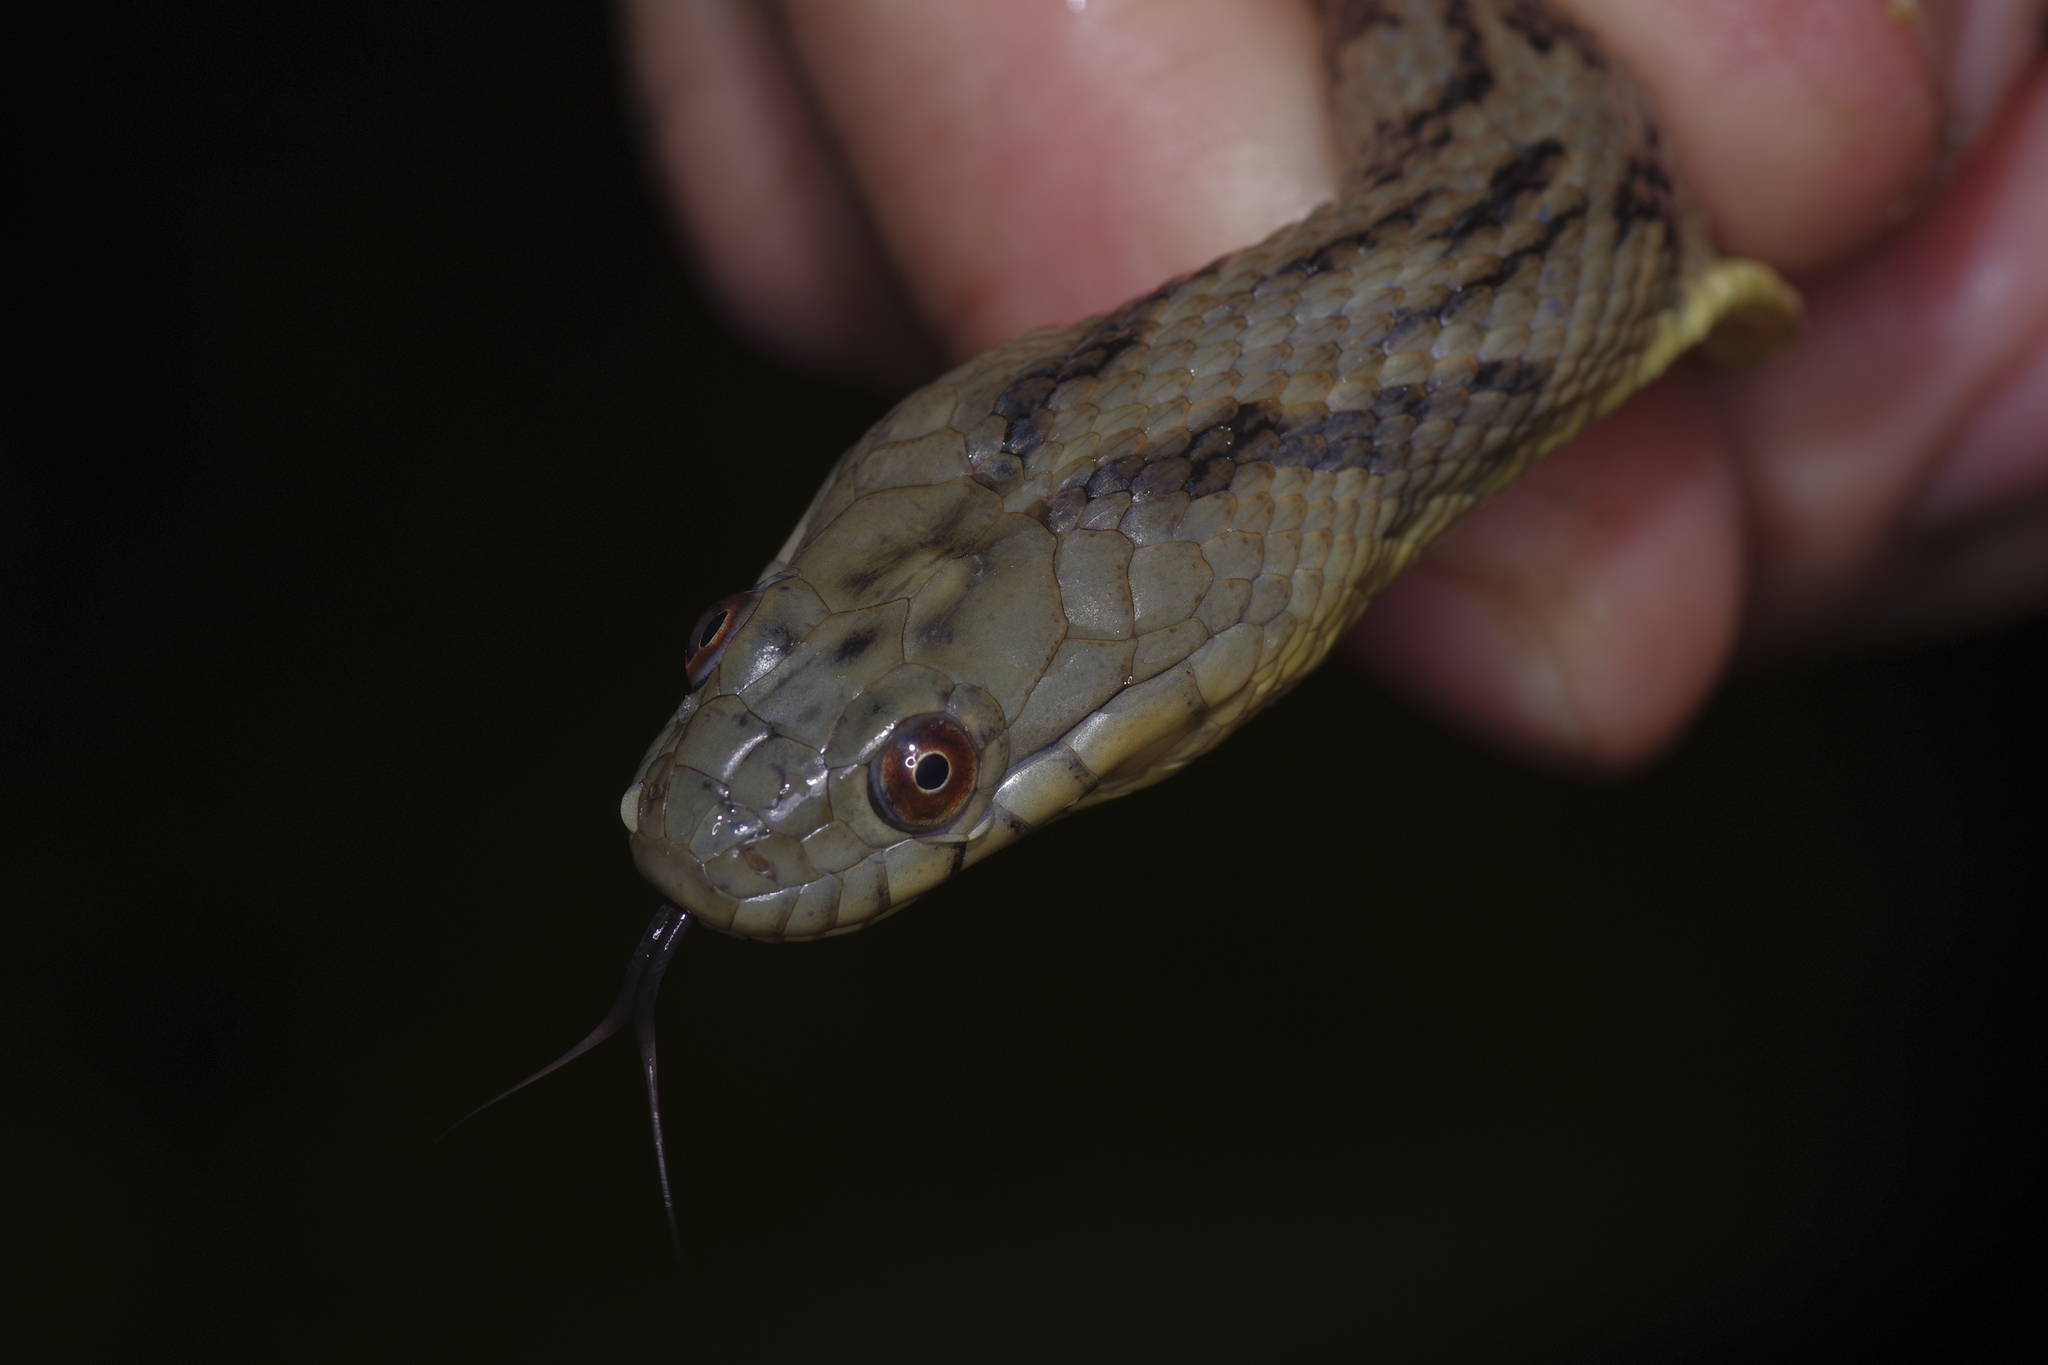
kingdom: Animalia
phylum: Chordata
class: Squamata
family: Colubridae
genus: Nerodia
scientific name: Nerodia rhombifer
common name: Diamondback water snake
